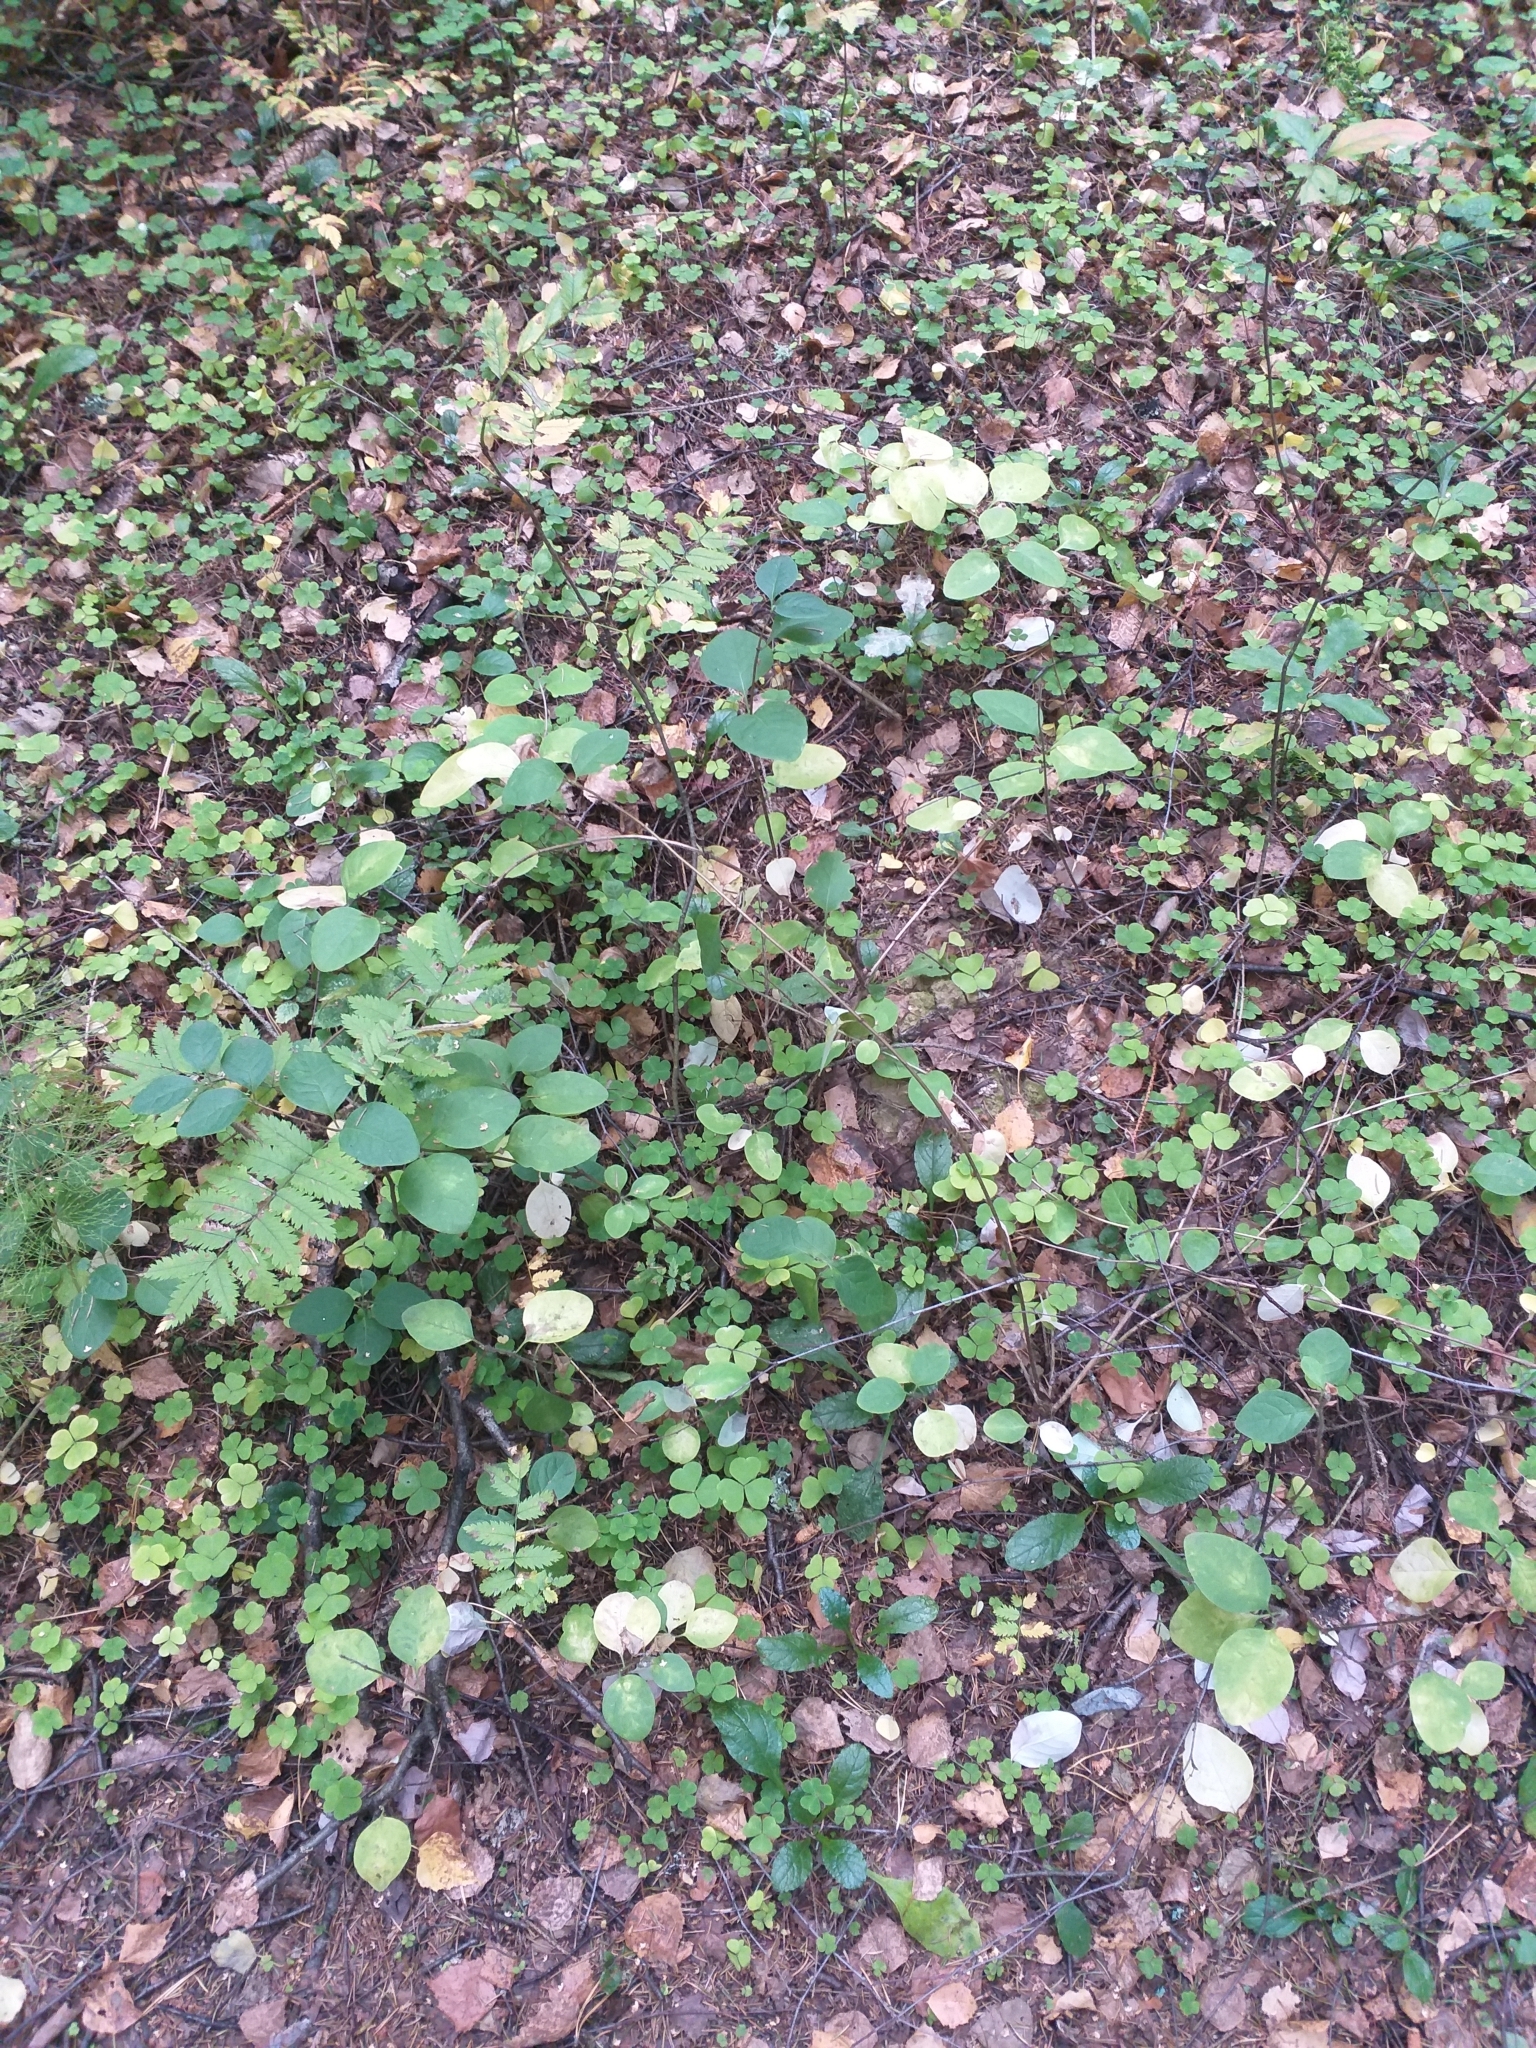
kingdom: Plantae
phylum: Tracheophyta
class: Magnoliopsida
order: Dipsacales
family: Caprifoliaceae
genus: Symphoricarpos
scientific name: Symphoricarpos albus
